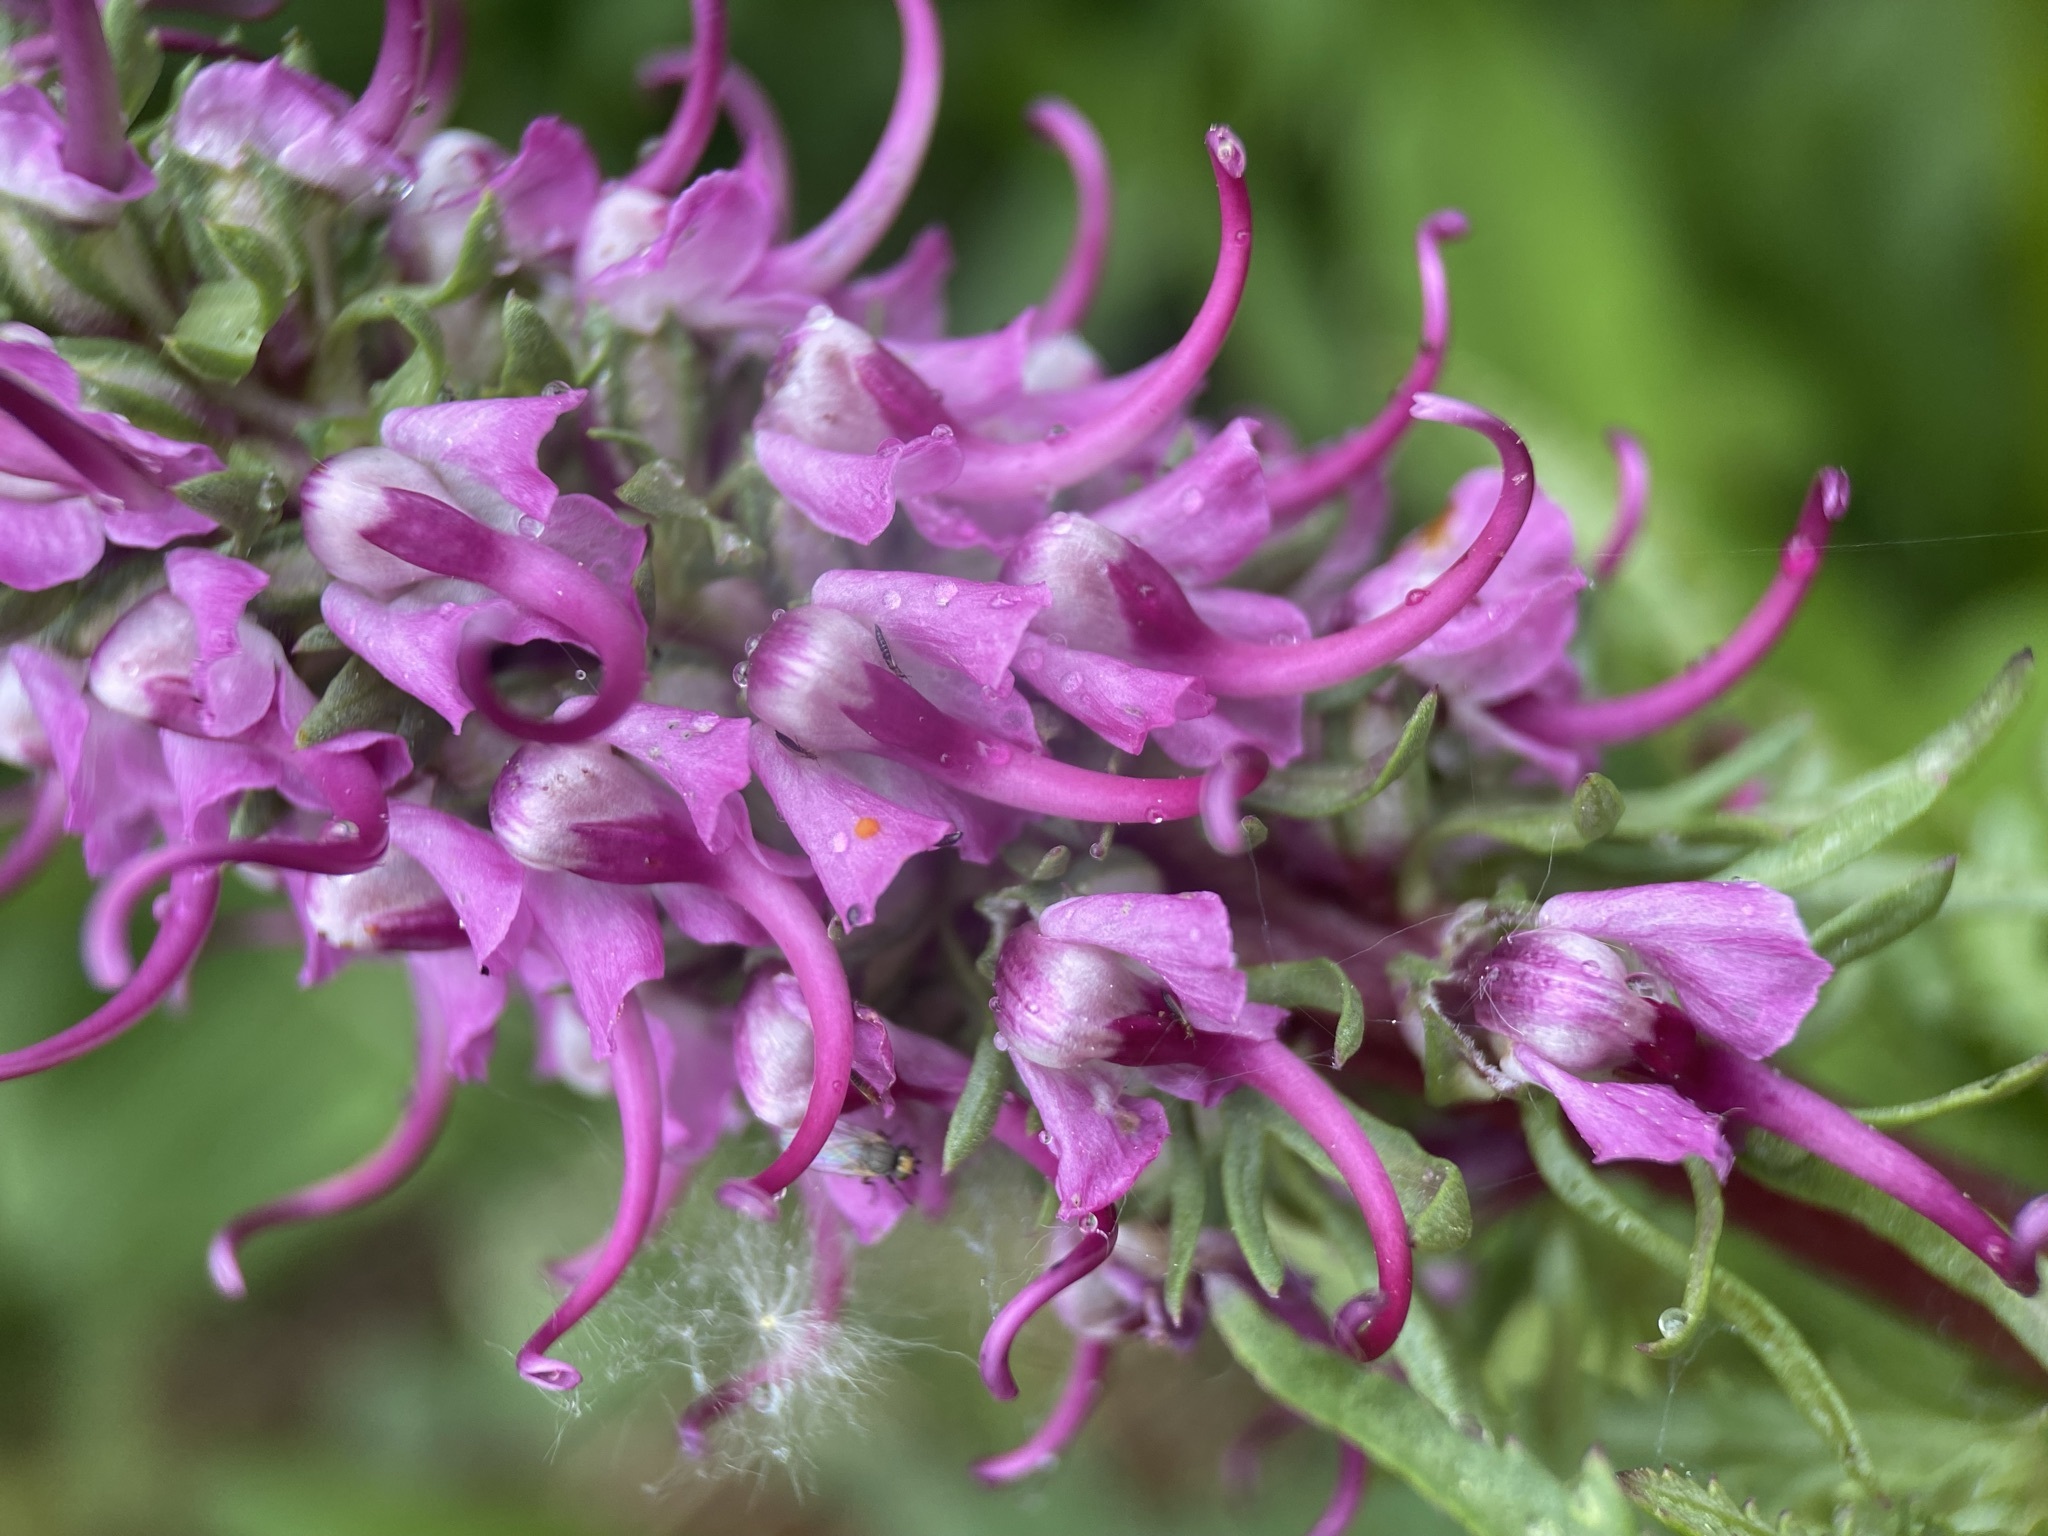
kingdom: Plantae
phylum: Tracheophyta
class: Magnoliopsida
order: Lamiales
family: Orobanchaceae
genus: Pedicularis
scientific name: Pedicularis groenlandica
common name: Elephant's-head
